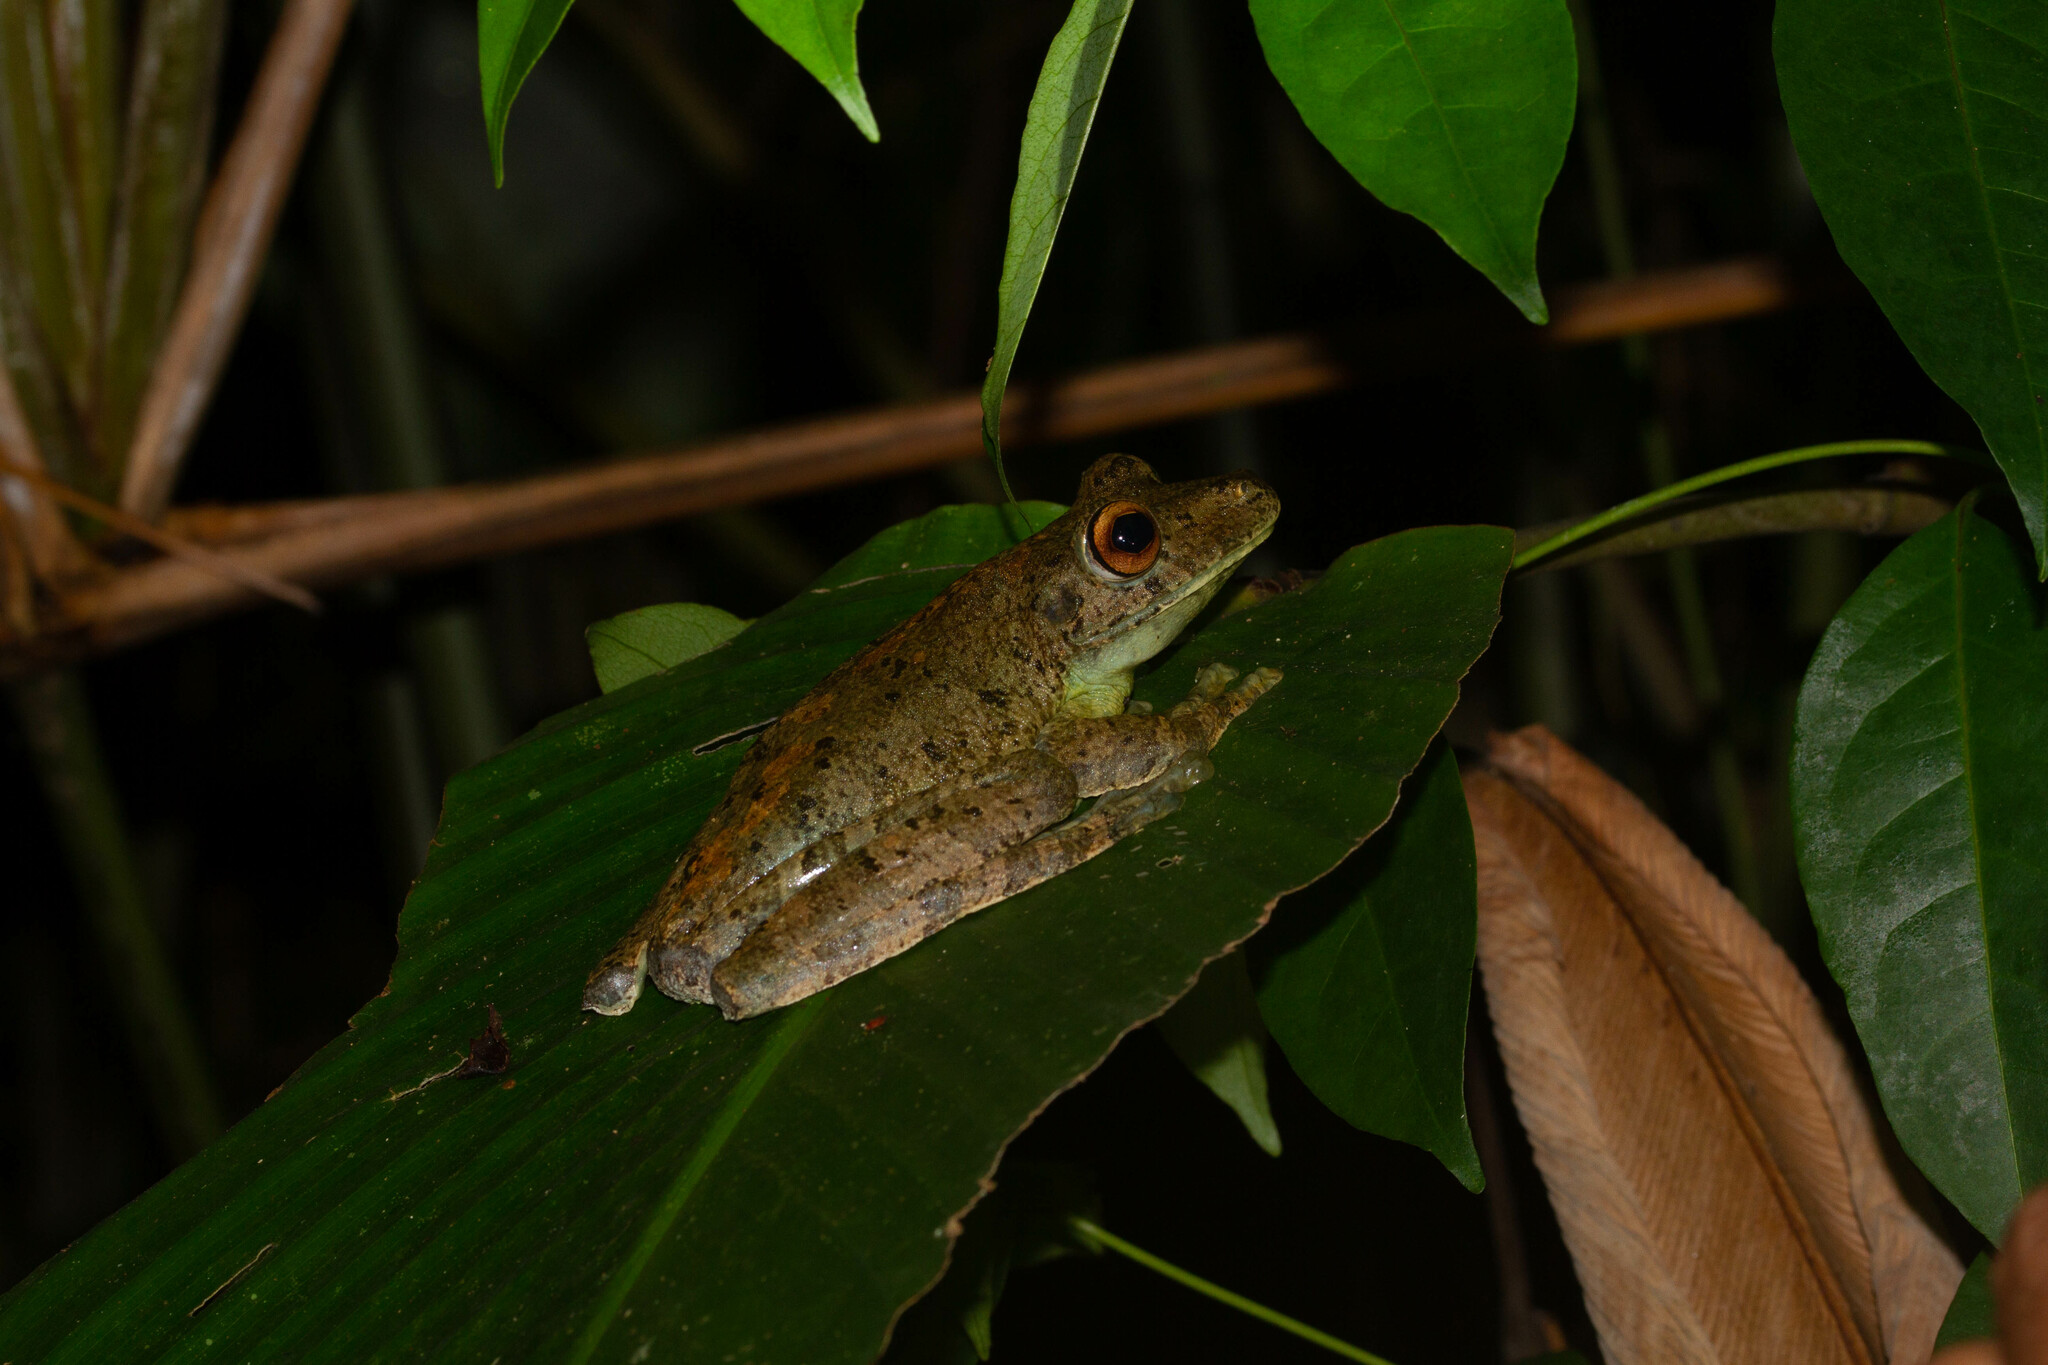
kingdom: Animalia
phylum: Chordata
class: Amphibia
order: Anura
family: Hylidae
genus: Boana
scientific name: Boana boans
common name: Giant gladiator treefrog
